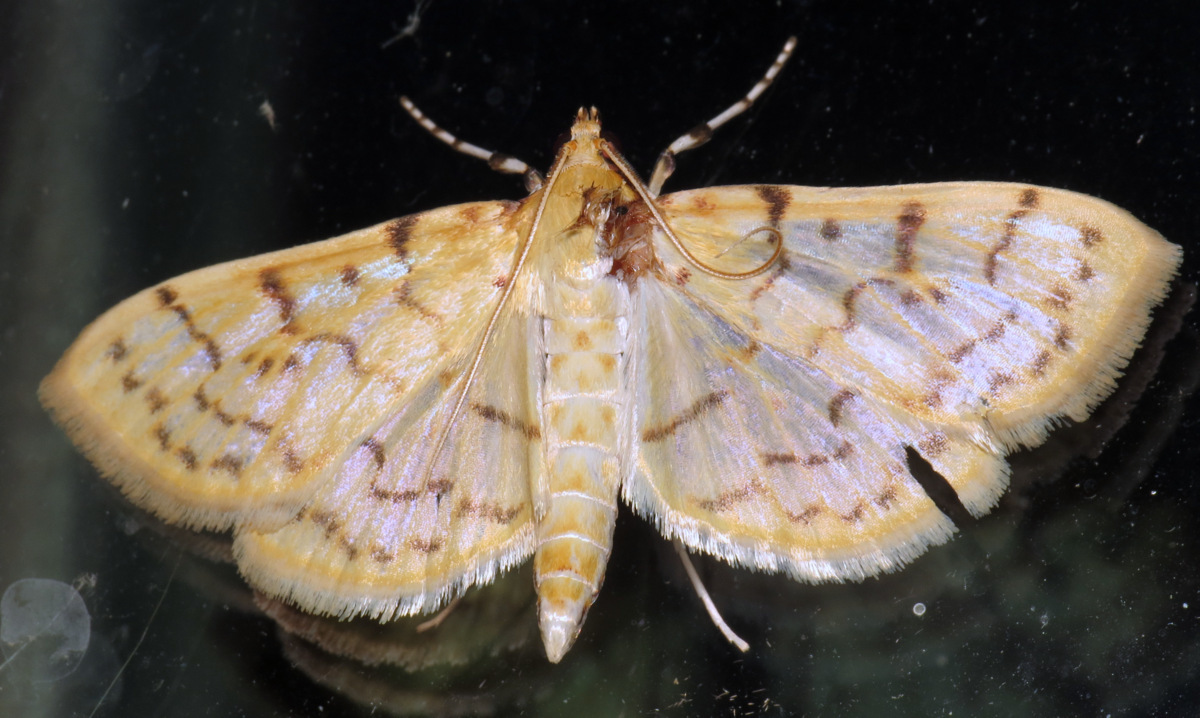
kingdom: Animalia
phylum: Arthropoda
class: Insecta
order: Lepidoptera
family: Crambidae
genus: Polygrammodes
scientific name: Polygrammodes flavidalis
